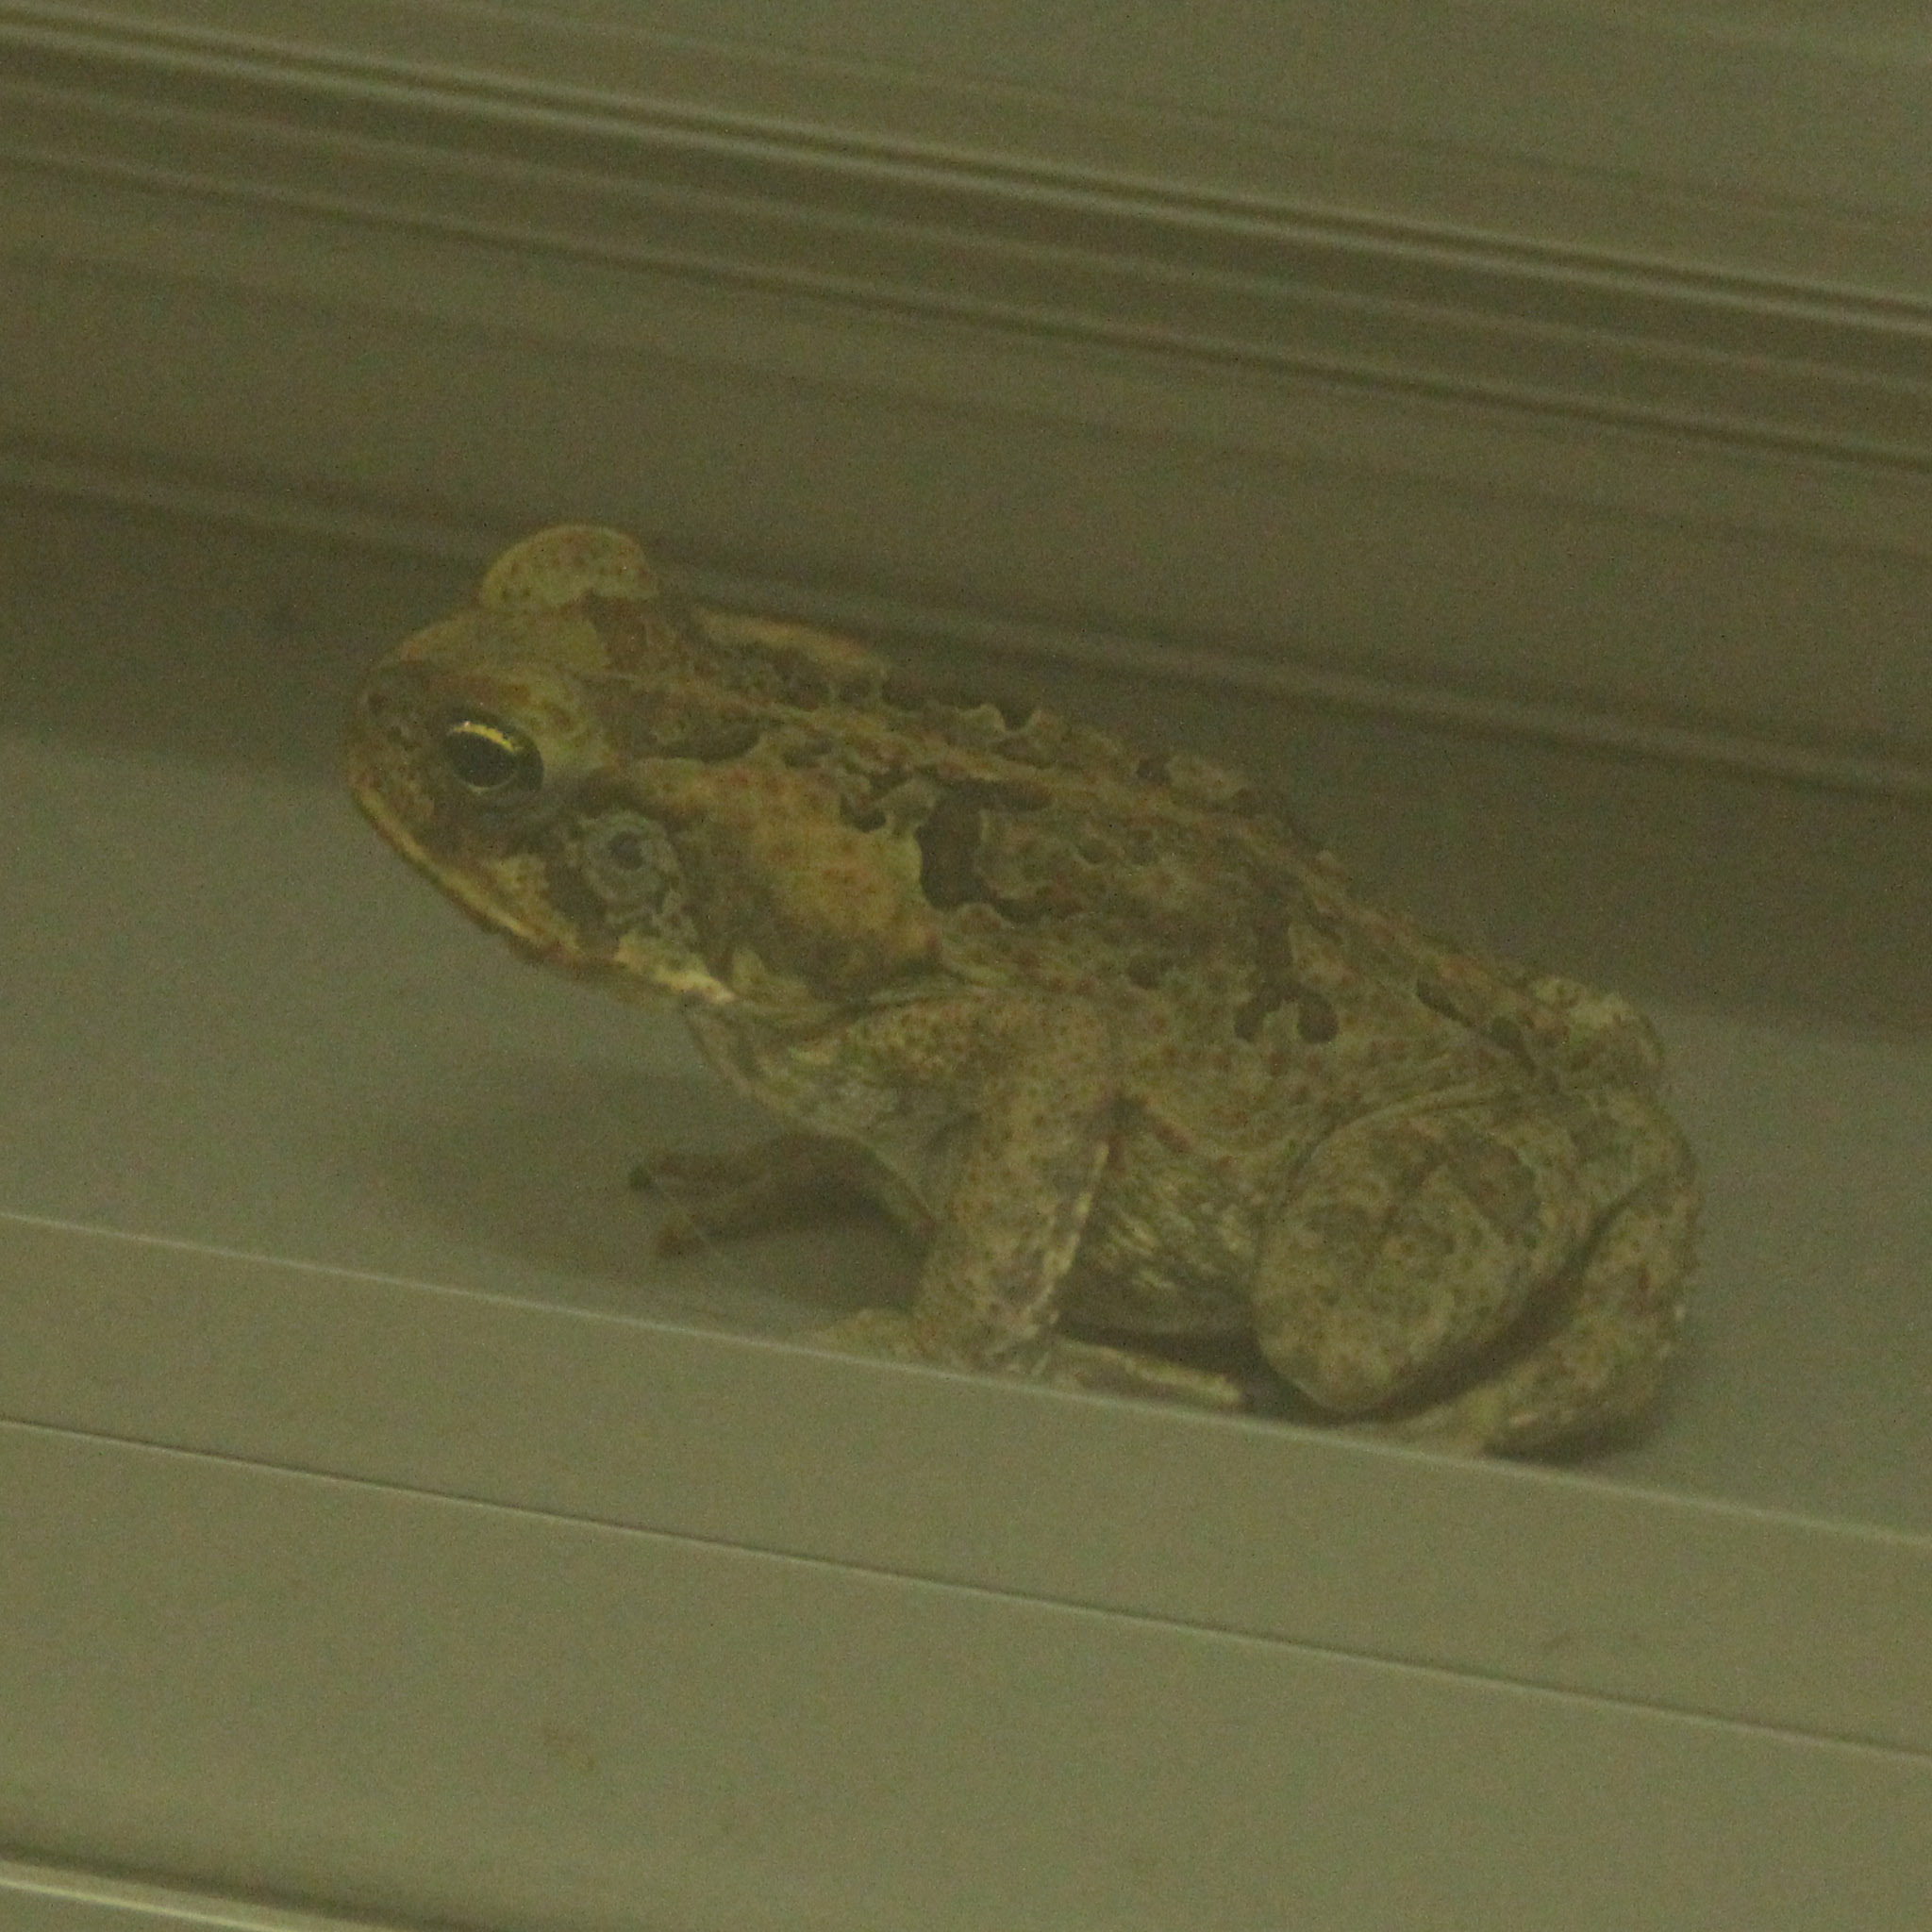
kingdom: Animalia
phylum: Chordata
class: Amphibia
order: Anura
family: Bufonidae
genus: Rhinella
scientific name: Rhinella marina
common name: Cane toad
